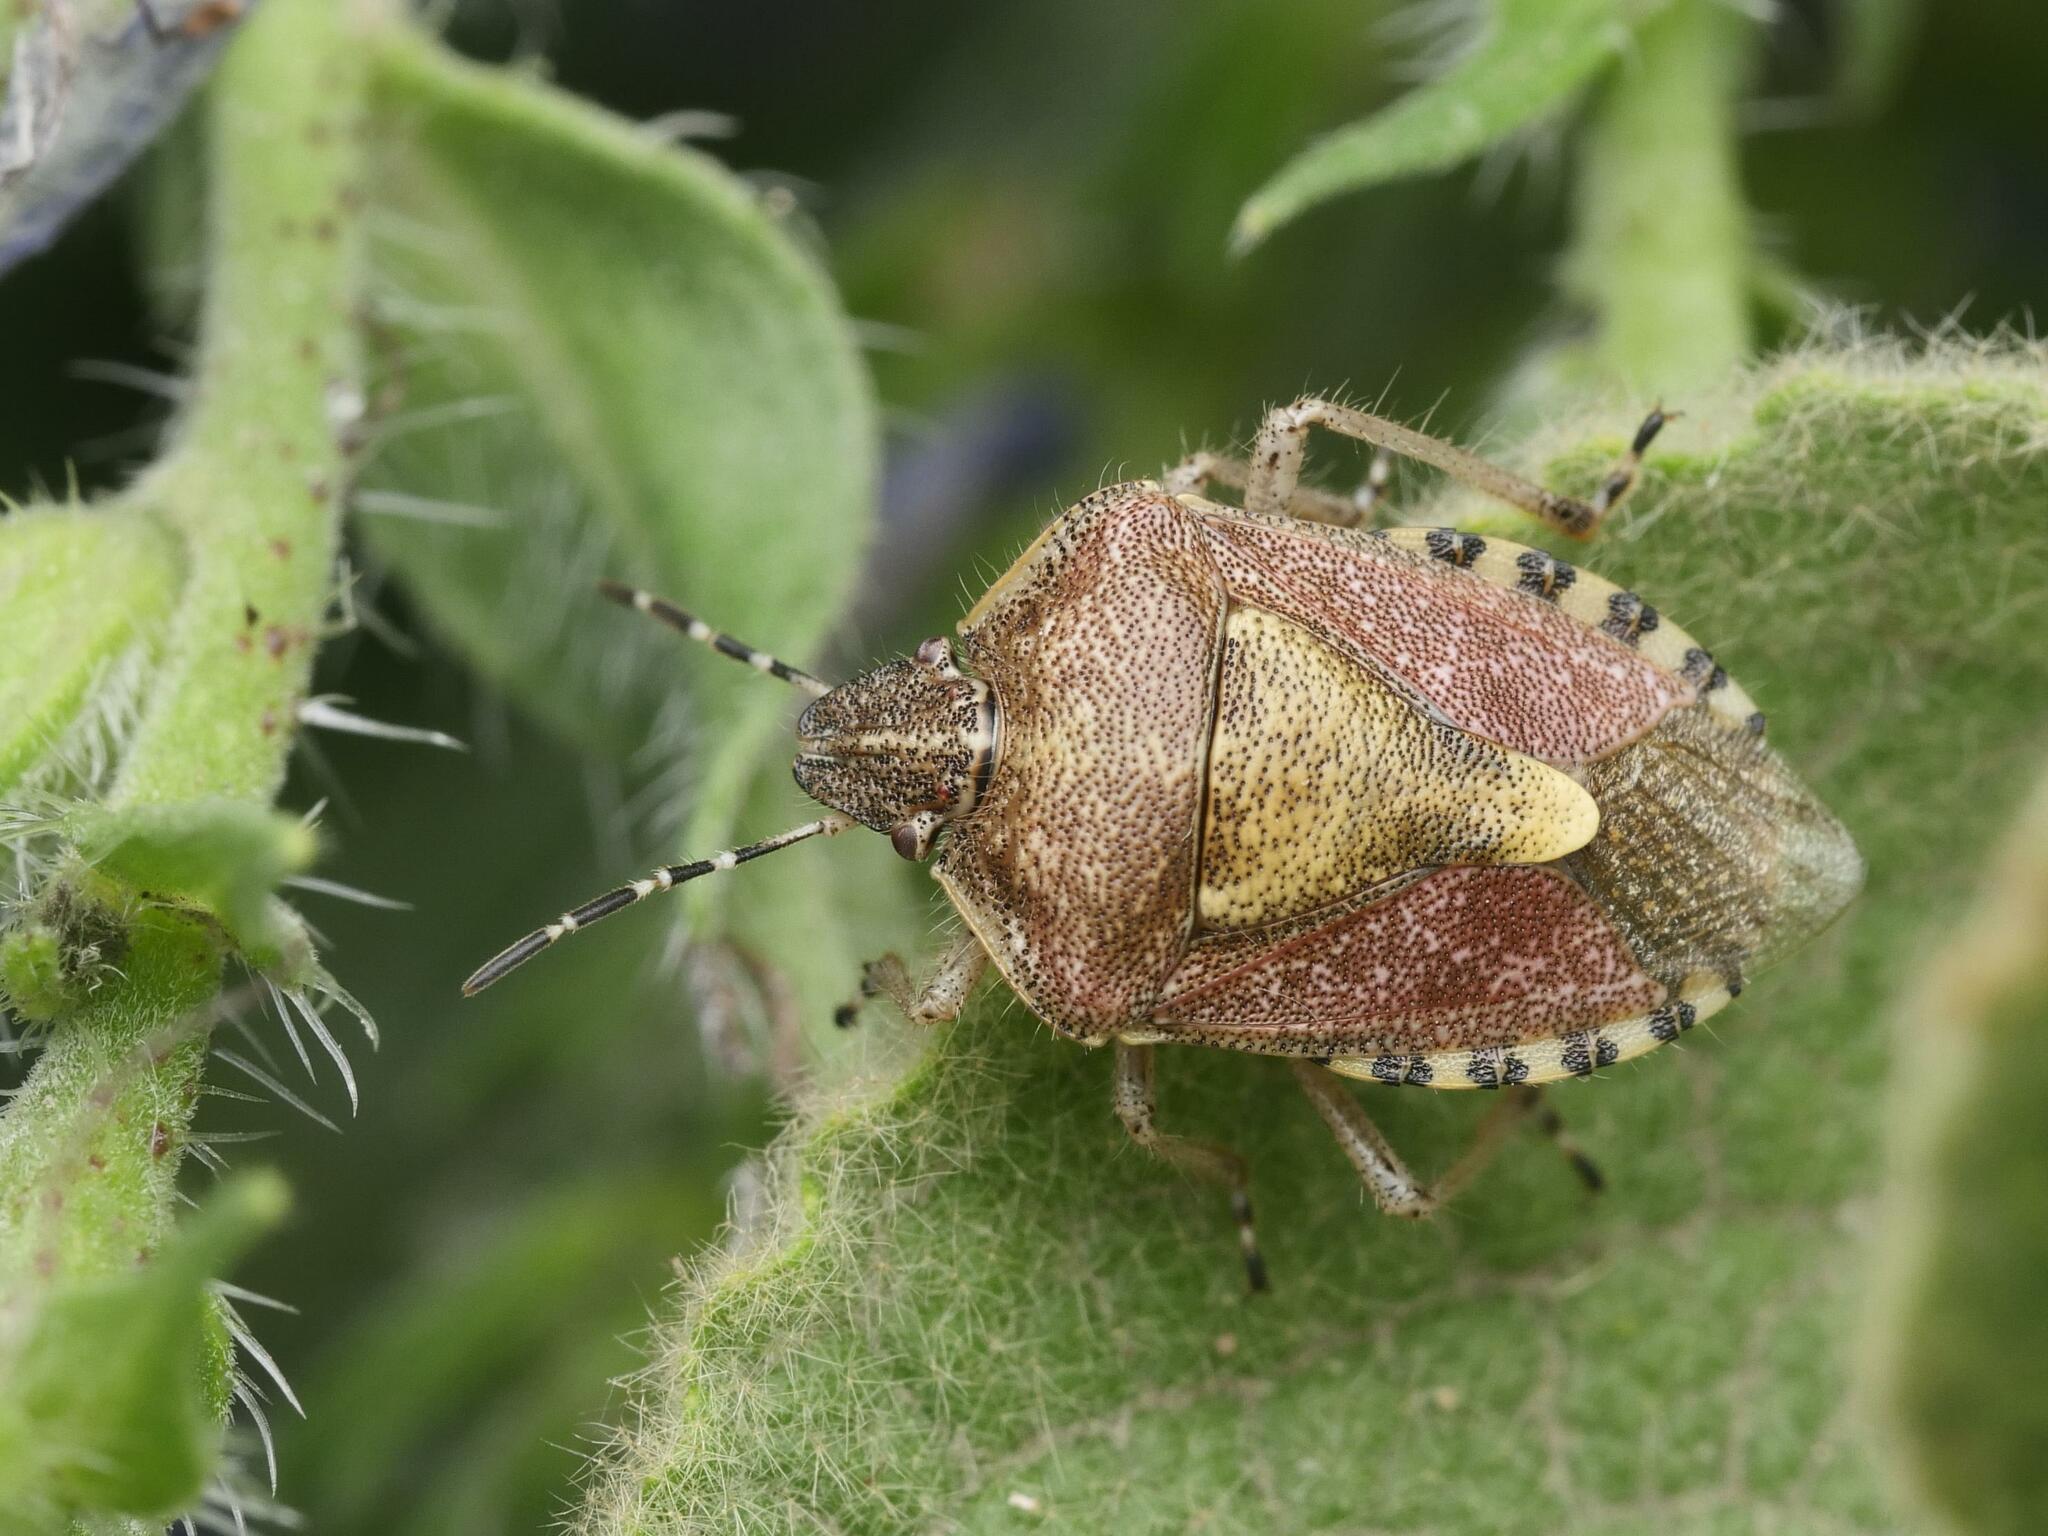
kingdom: Animalia
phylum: Arthropoda
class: Insecta
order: Hemiptera
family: Pentatomidae
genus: Dolycoris
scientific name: Dolycoris baccarum
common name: Sloe bug
